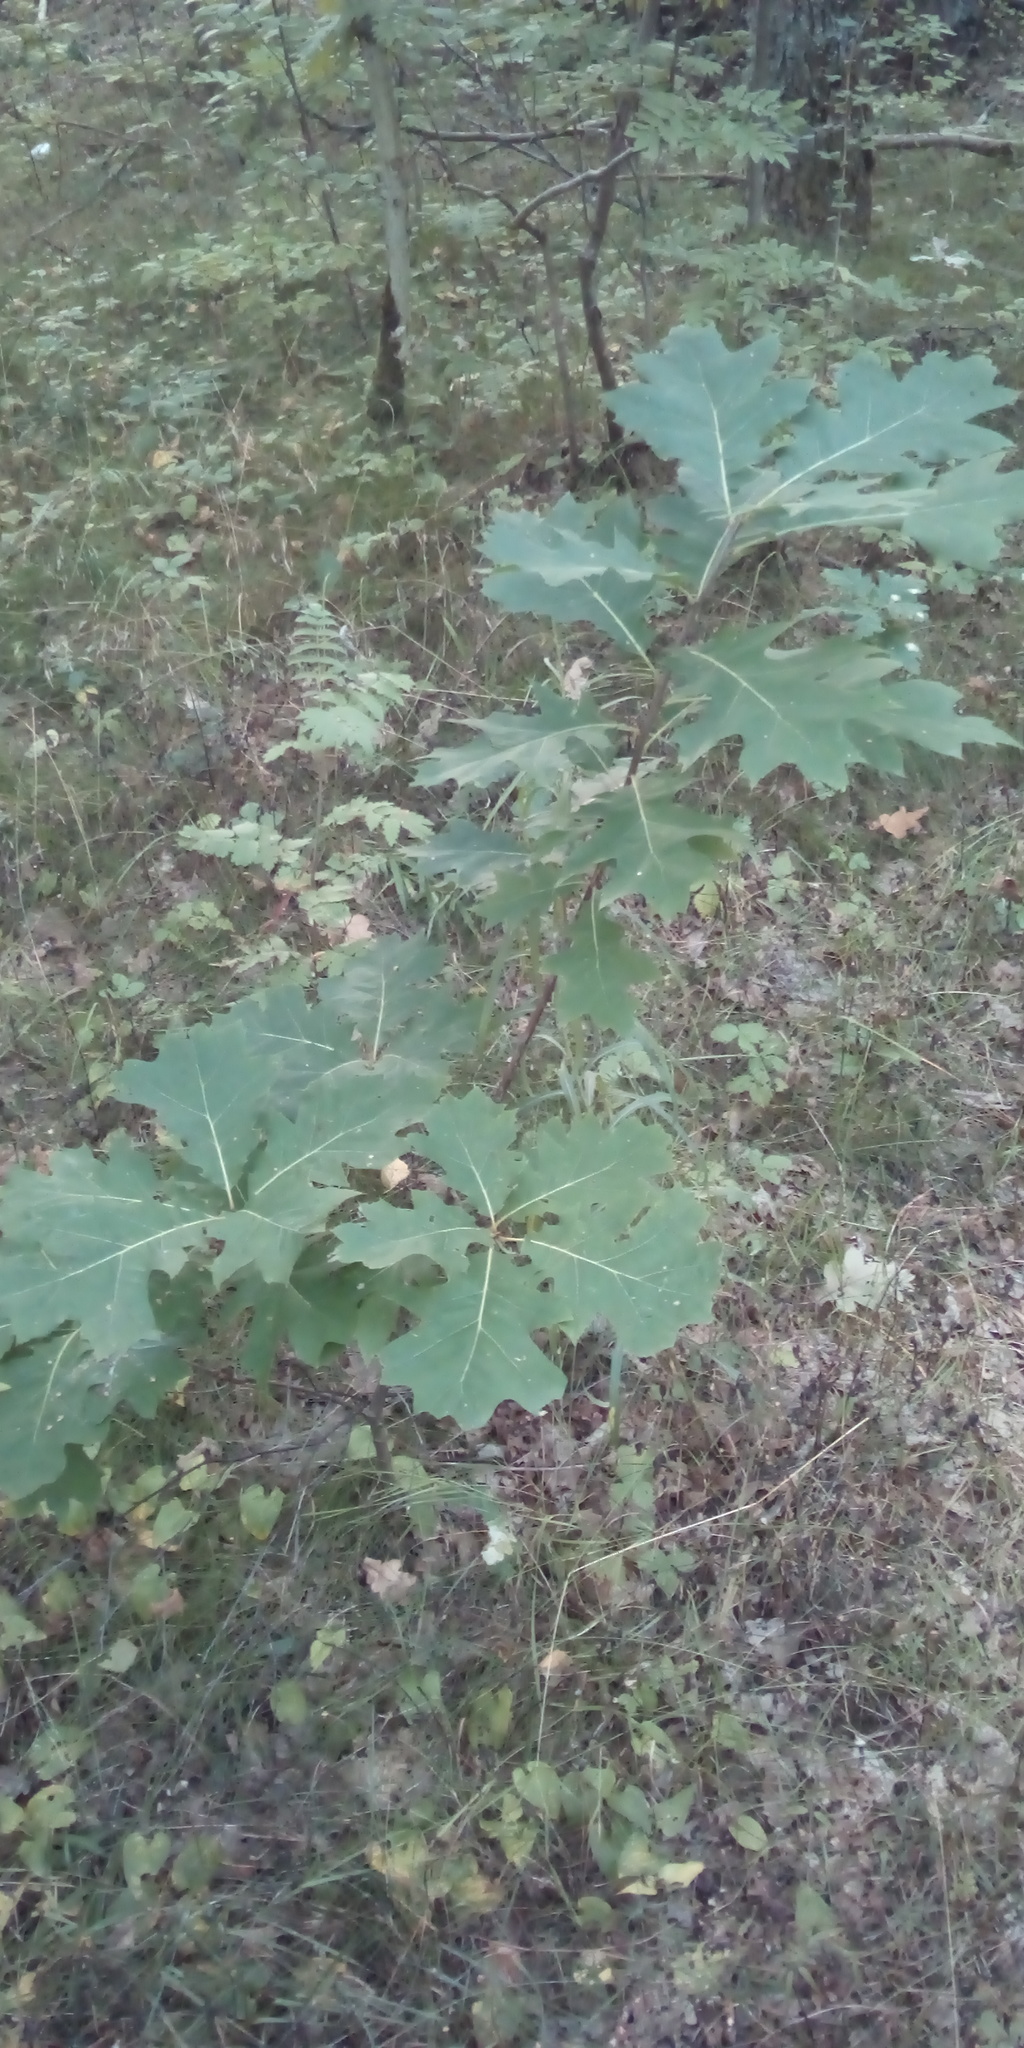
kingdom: Plantae
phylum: Tracheophyta
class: Magnoliopsida
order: Fagales
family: Fagaceae
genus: Quercus
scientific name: Quercus rubra
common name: Red oak
